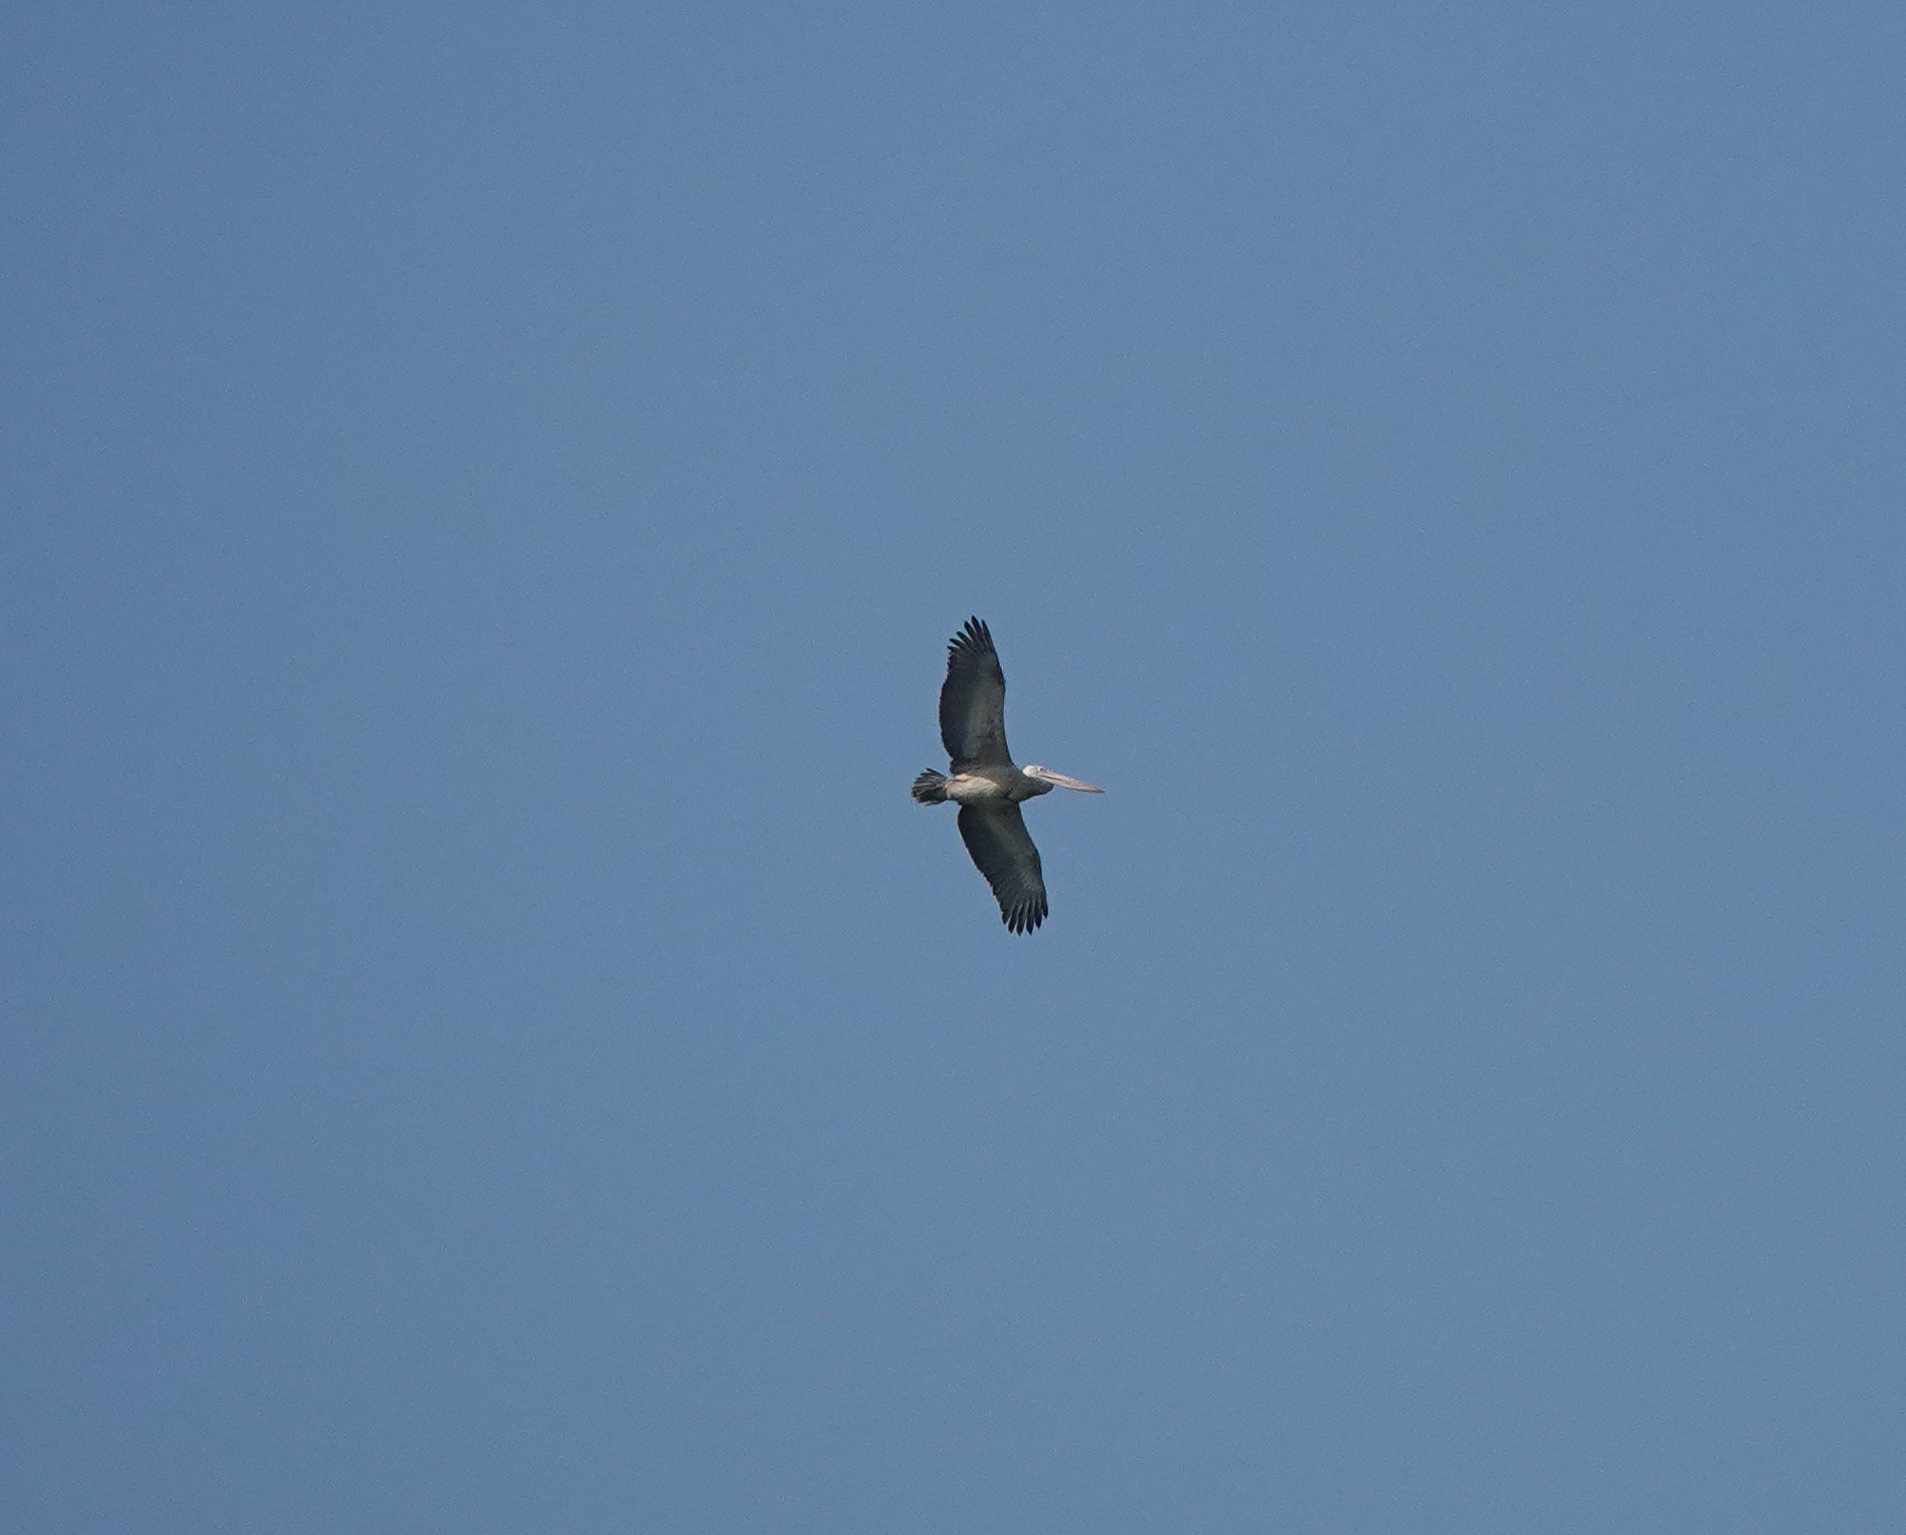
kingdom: Animalia
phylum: Chordata
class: Aves
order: Pelecaniformes
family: Pelecanidae
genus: Pelecanus
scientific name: Pelecanus philippensis
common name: Spot-billed pelican
